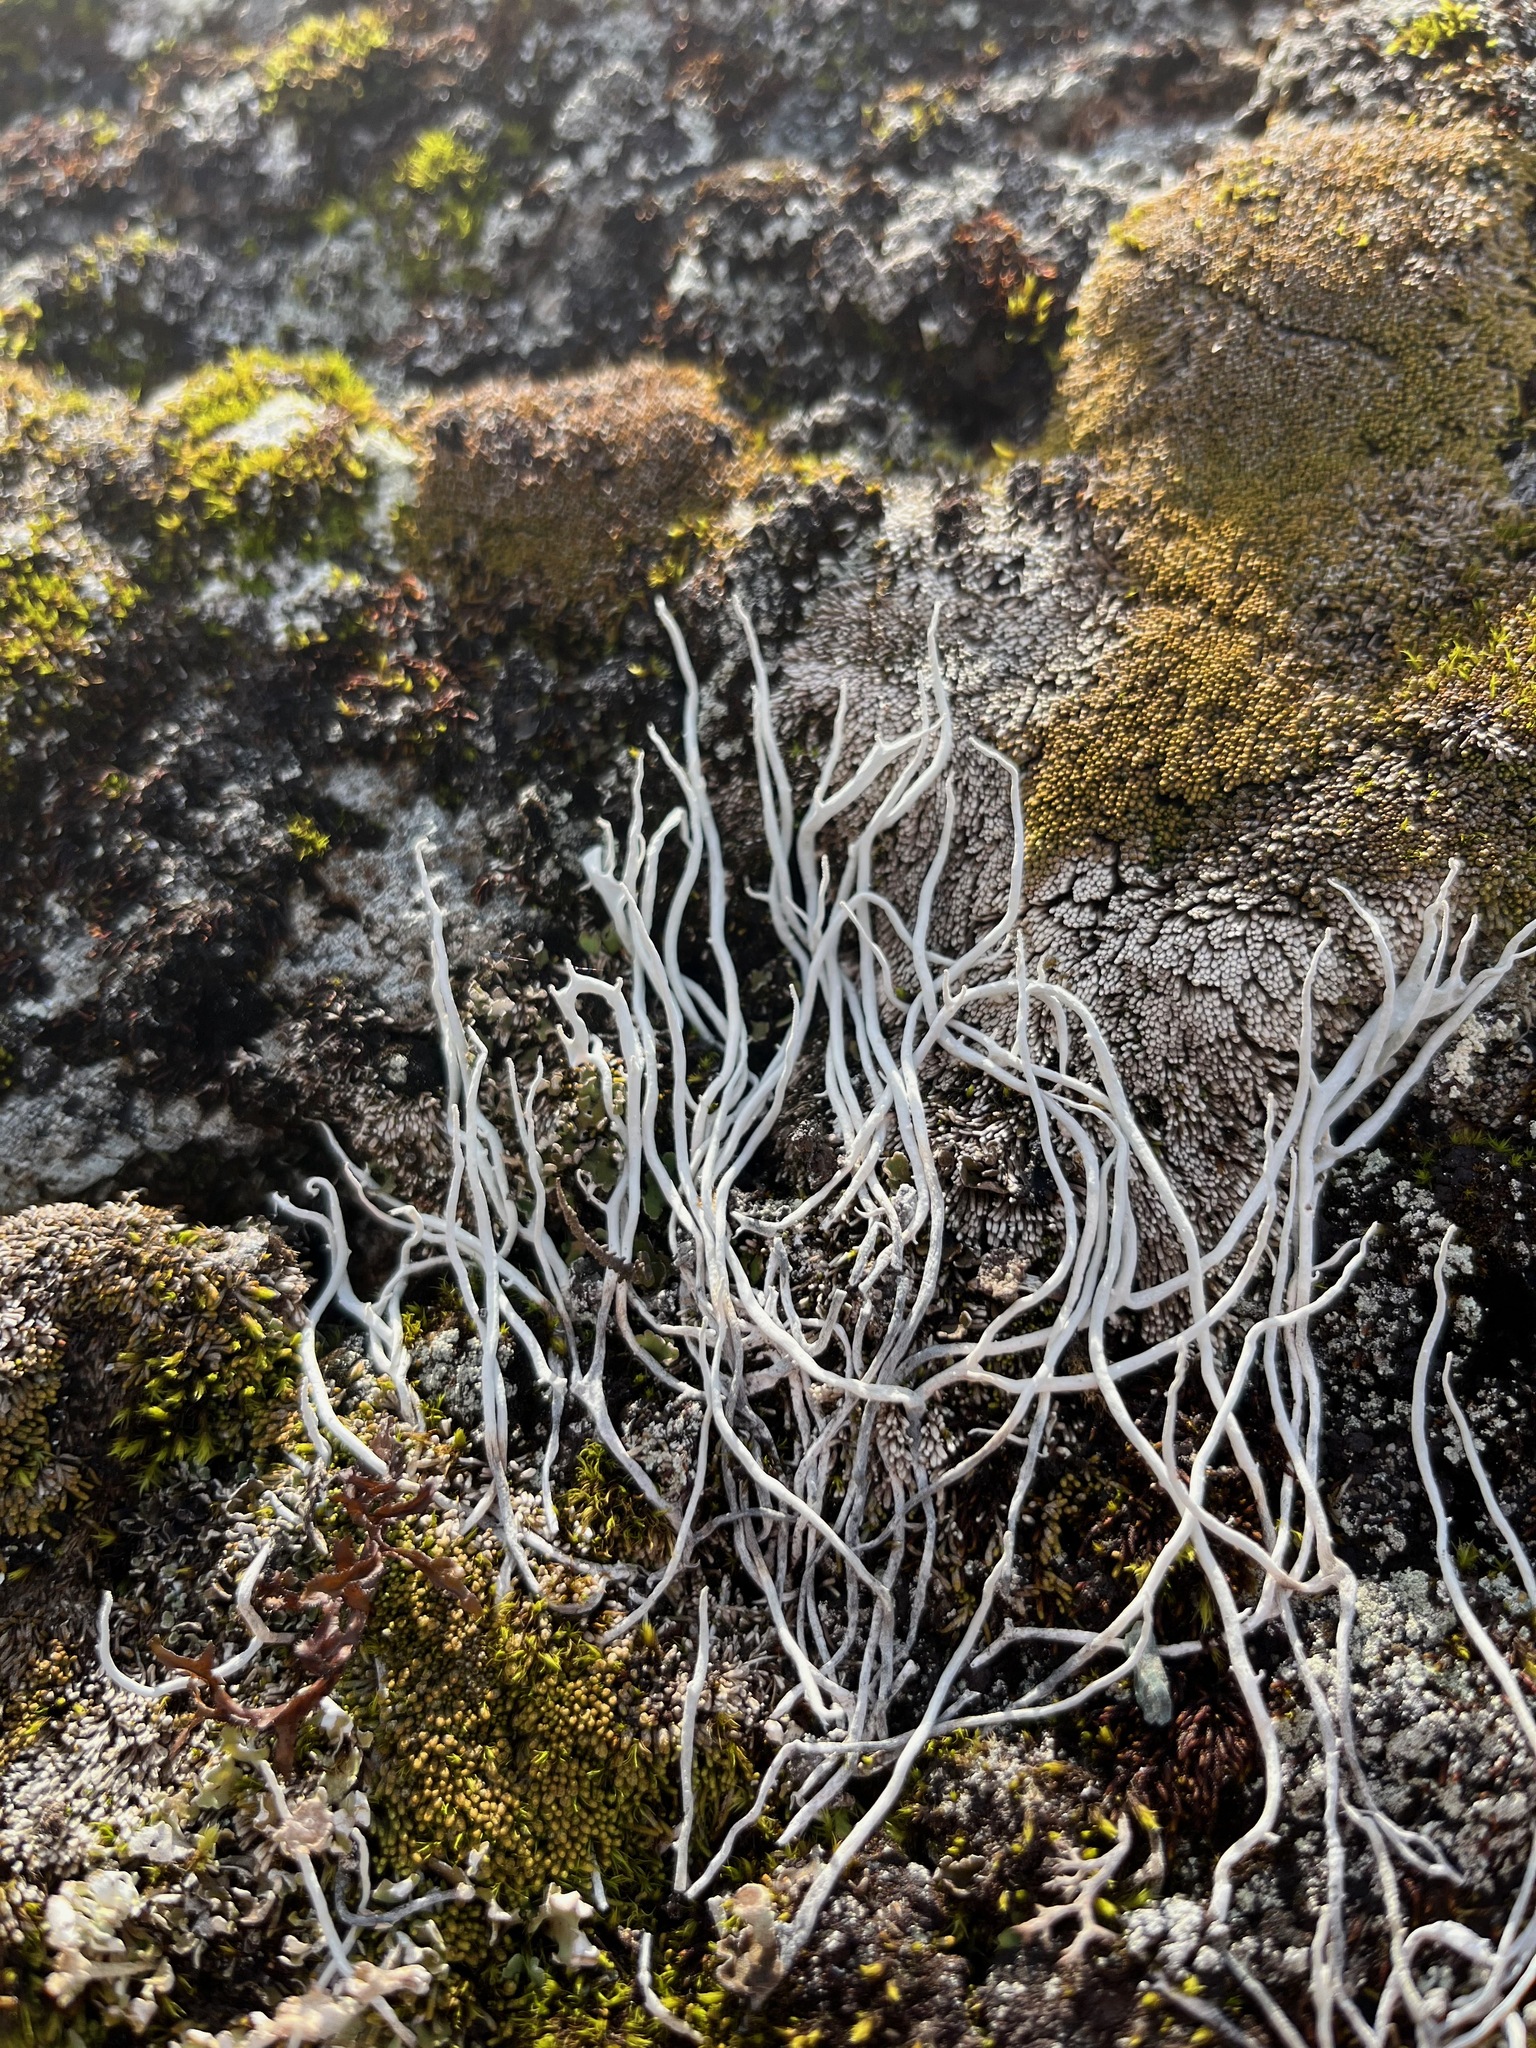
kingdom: Fungi
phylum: Ascomycota
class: Lecanoromycetes
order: Pertusariales
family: Icmadophilaceae
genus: Thamnolia
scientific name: Thamnolia vermicularis
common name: Whiteworm lichen
